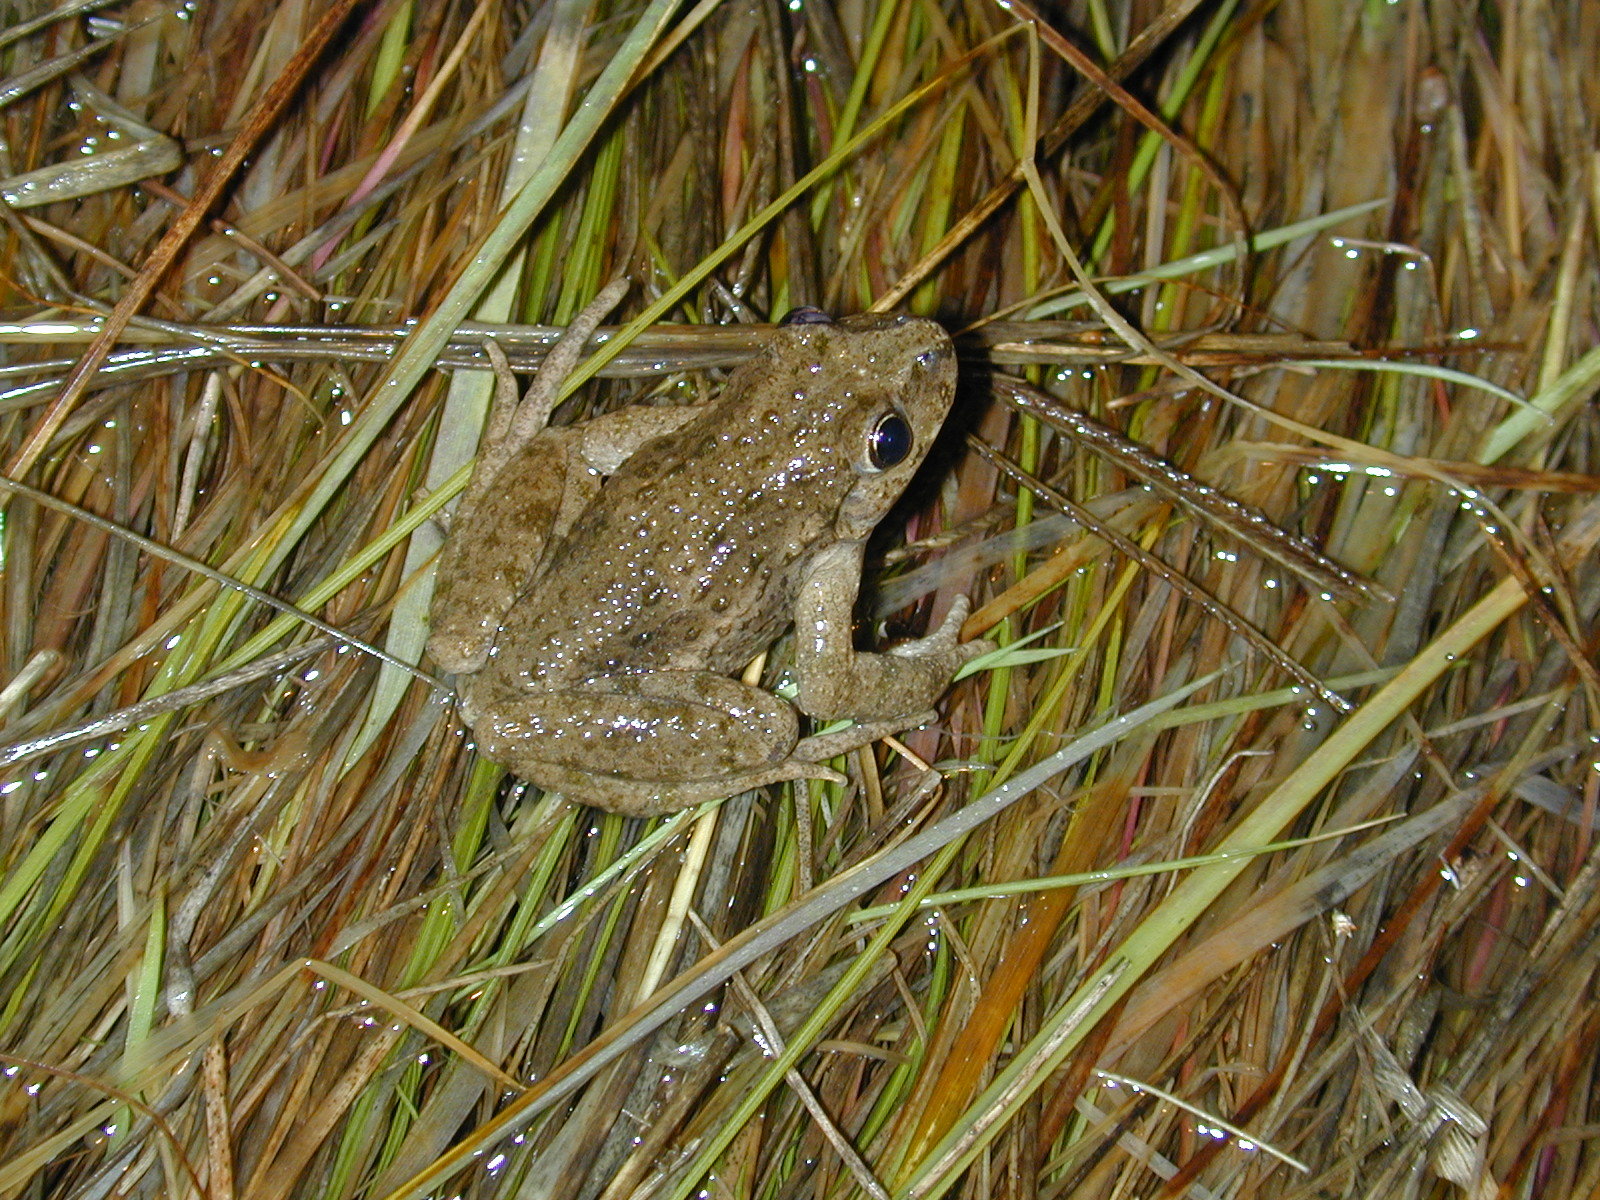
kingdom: Animalia
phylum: Chordata
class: Amphibia
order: Anura
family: Pelodytidae
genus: Pelodytes
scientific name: Pelodytes punctatus
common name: Parsley frog
